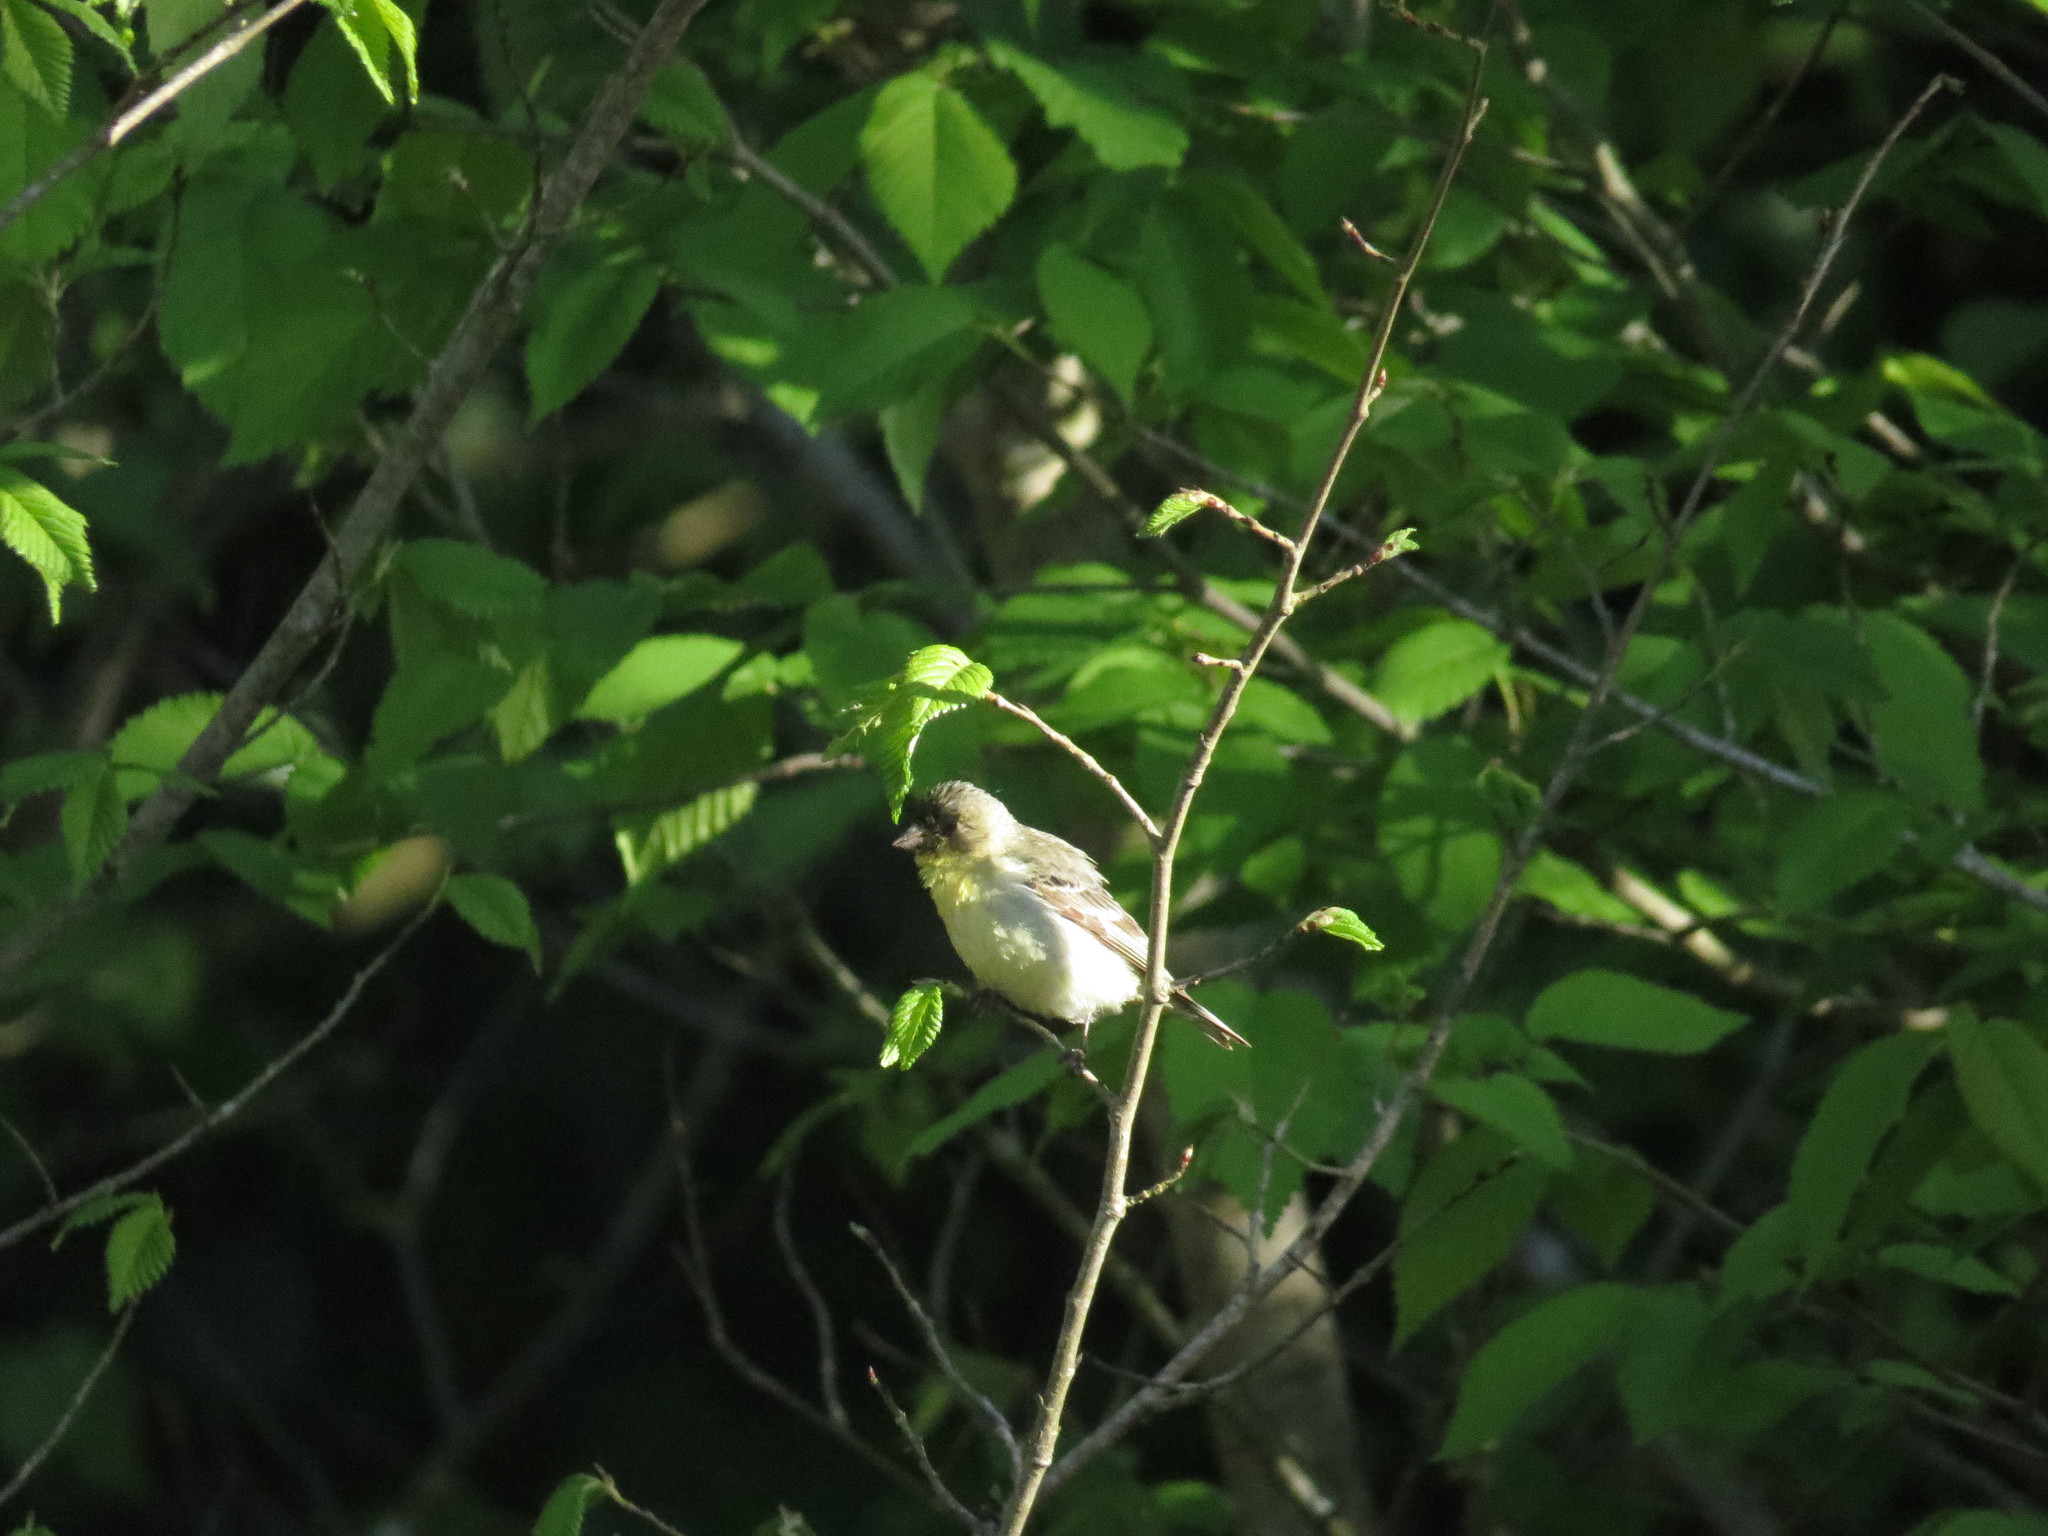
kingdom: Animalia
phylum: Chordata
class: Aves
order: Passeriformes
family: Fringillidae
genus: Spinus
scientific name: Spinus psaltria
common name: Lesser goldfinch
